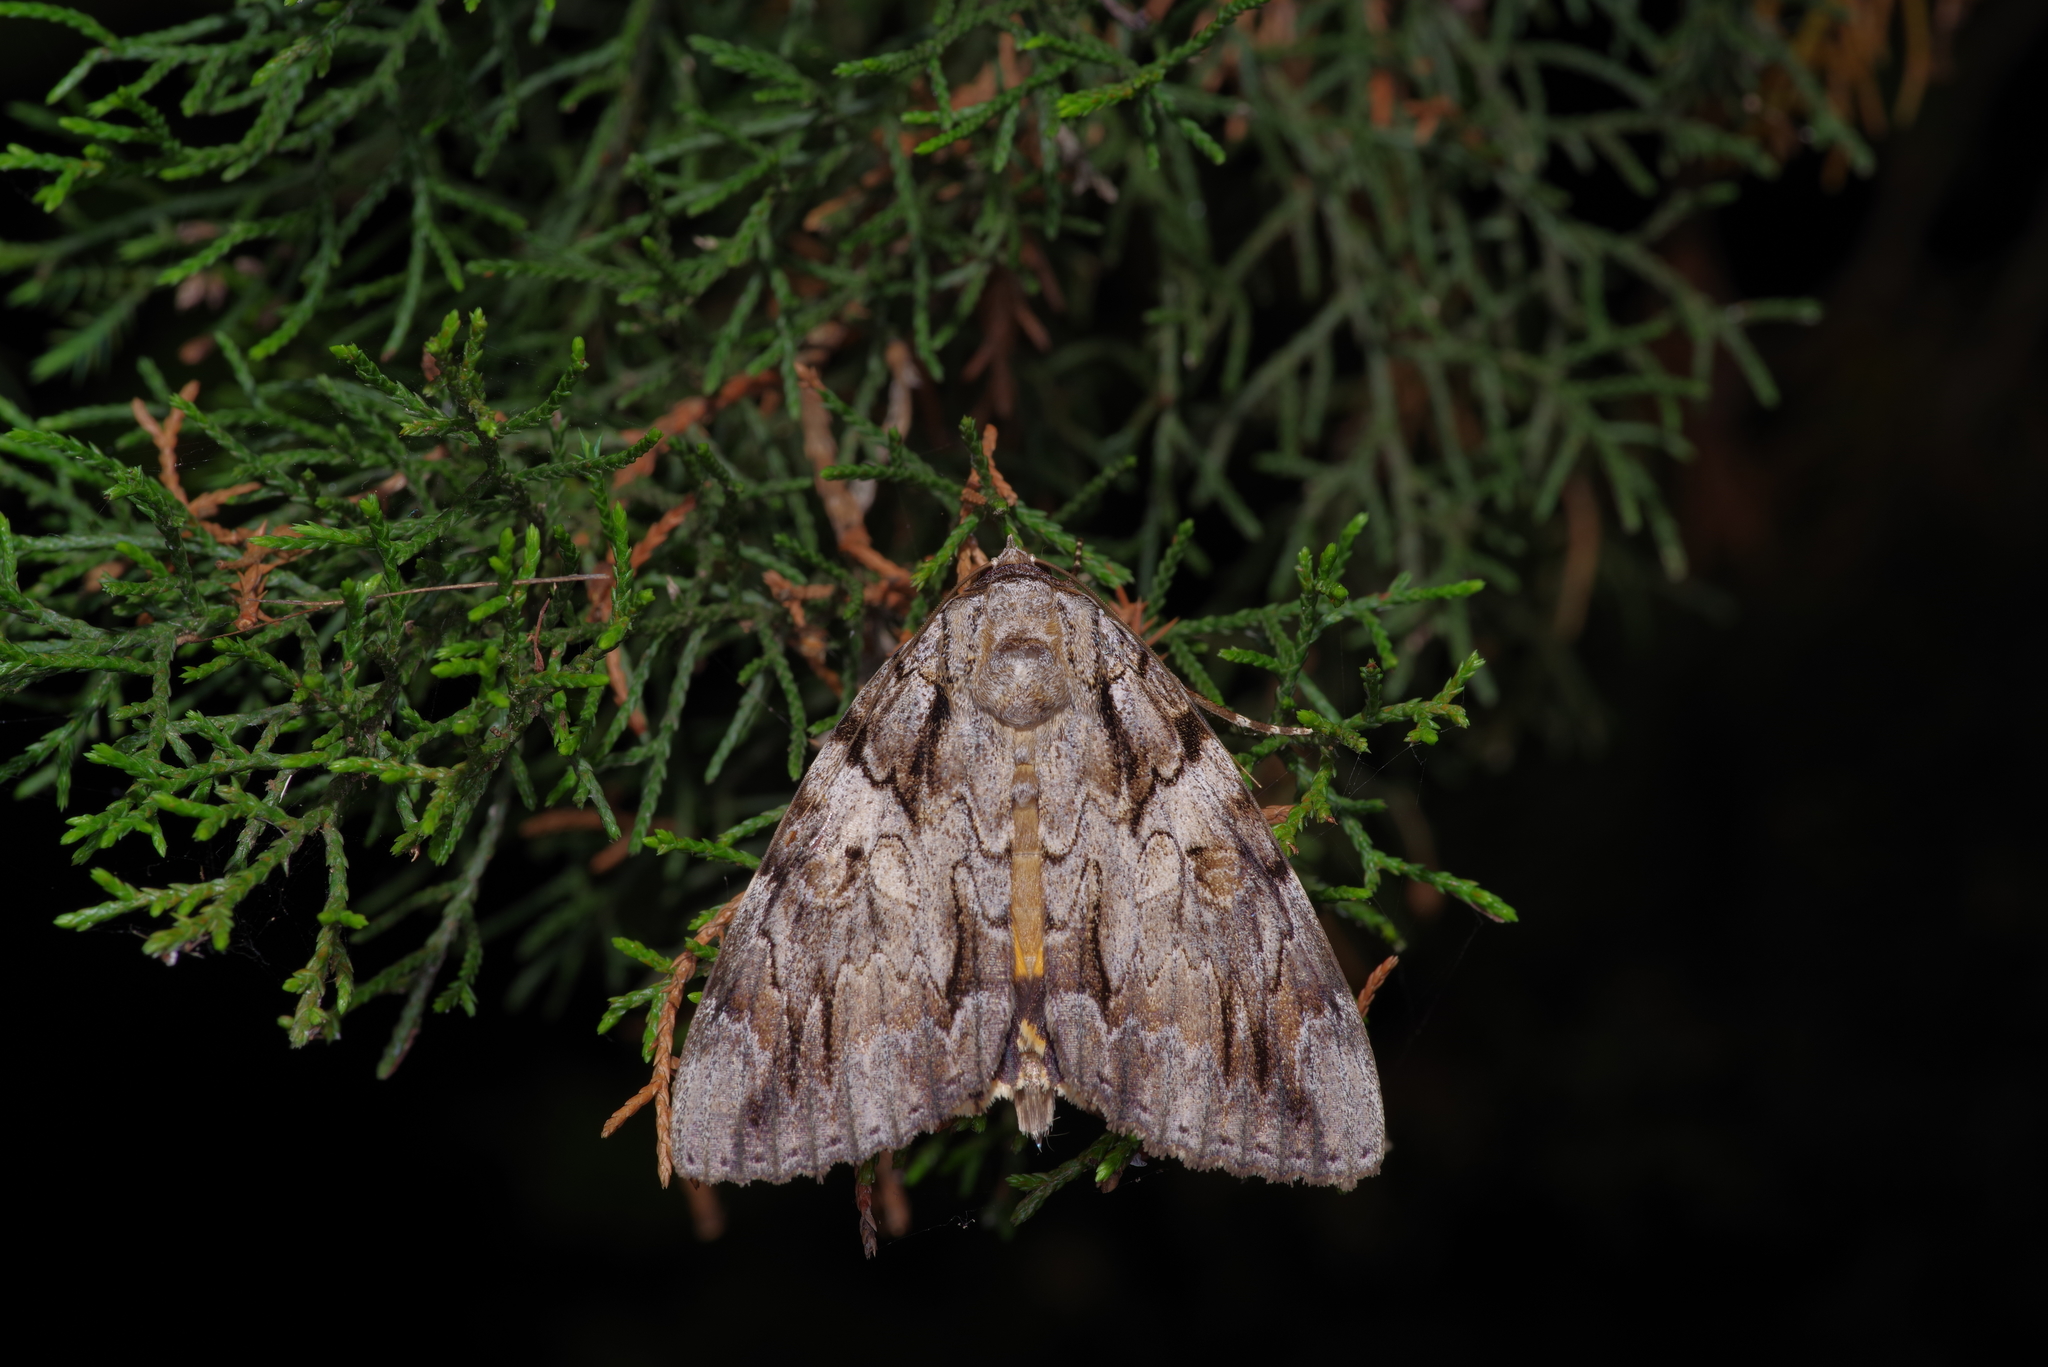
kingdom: Animalia
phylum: Arthropoda
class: Insecta
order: Lepidoptera
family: Erebidae
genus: Catocala
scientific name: Catocala neogama
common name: Bride underwing
